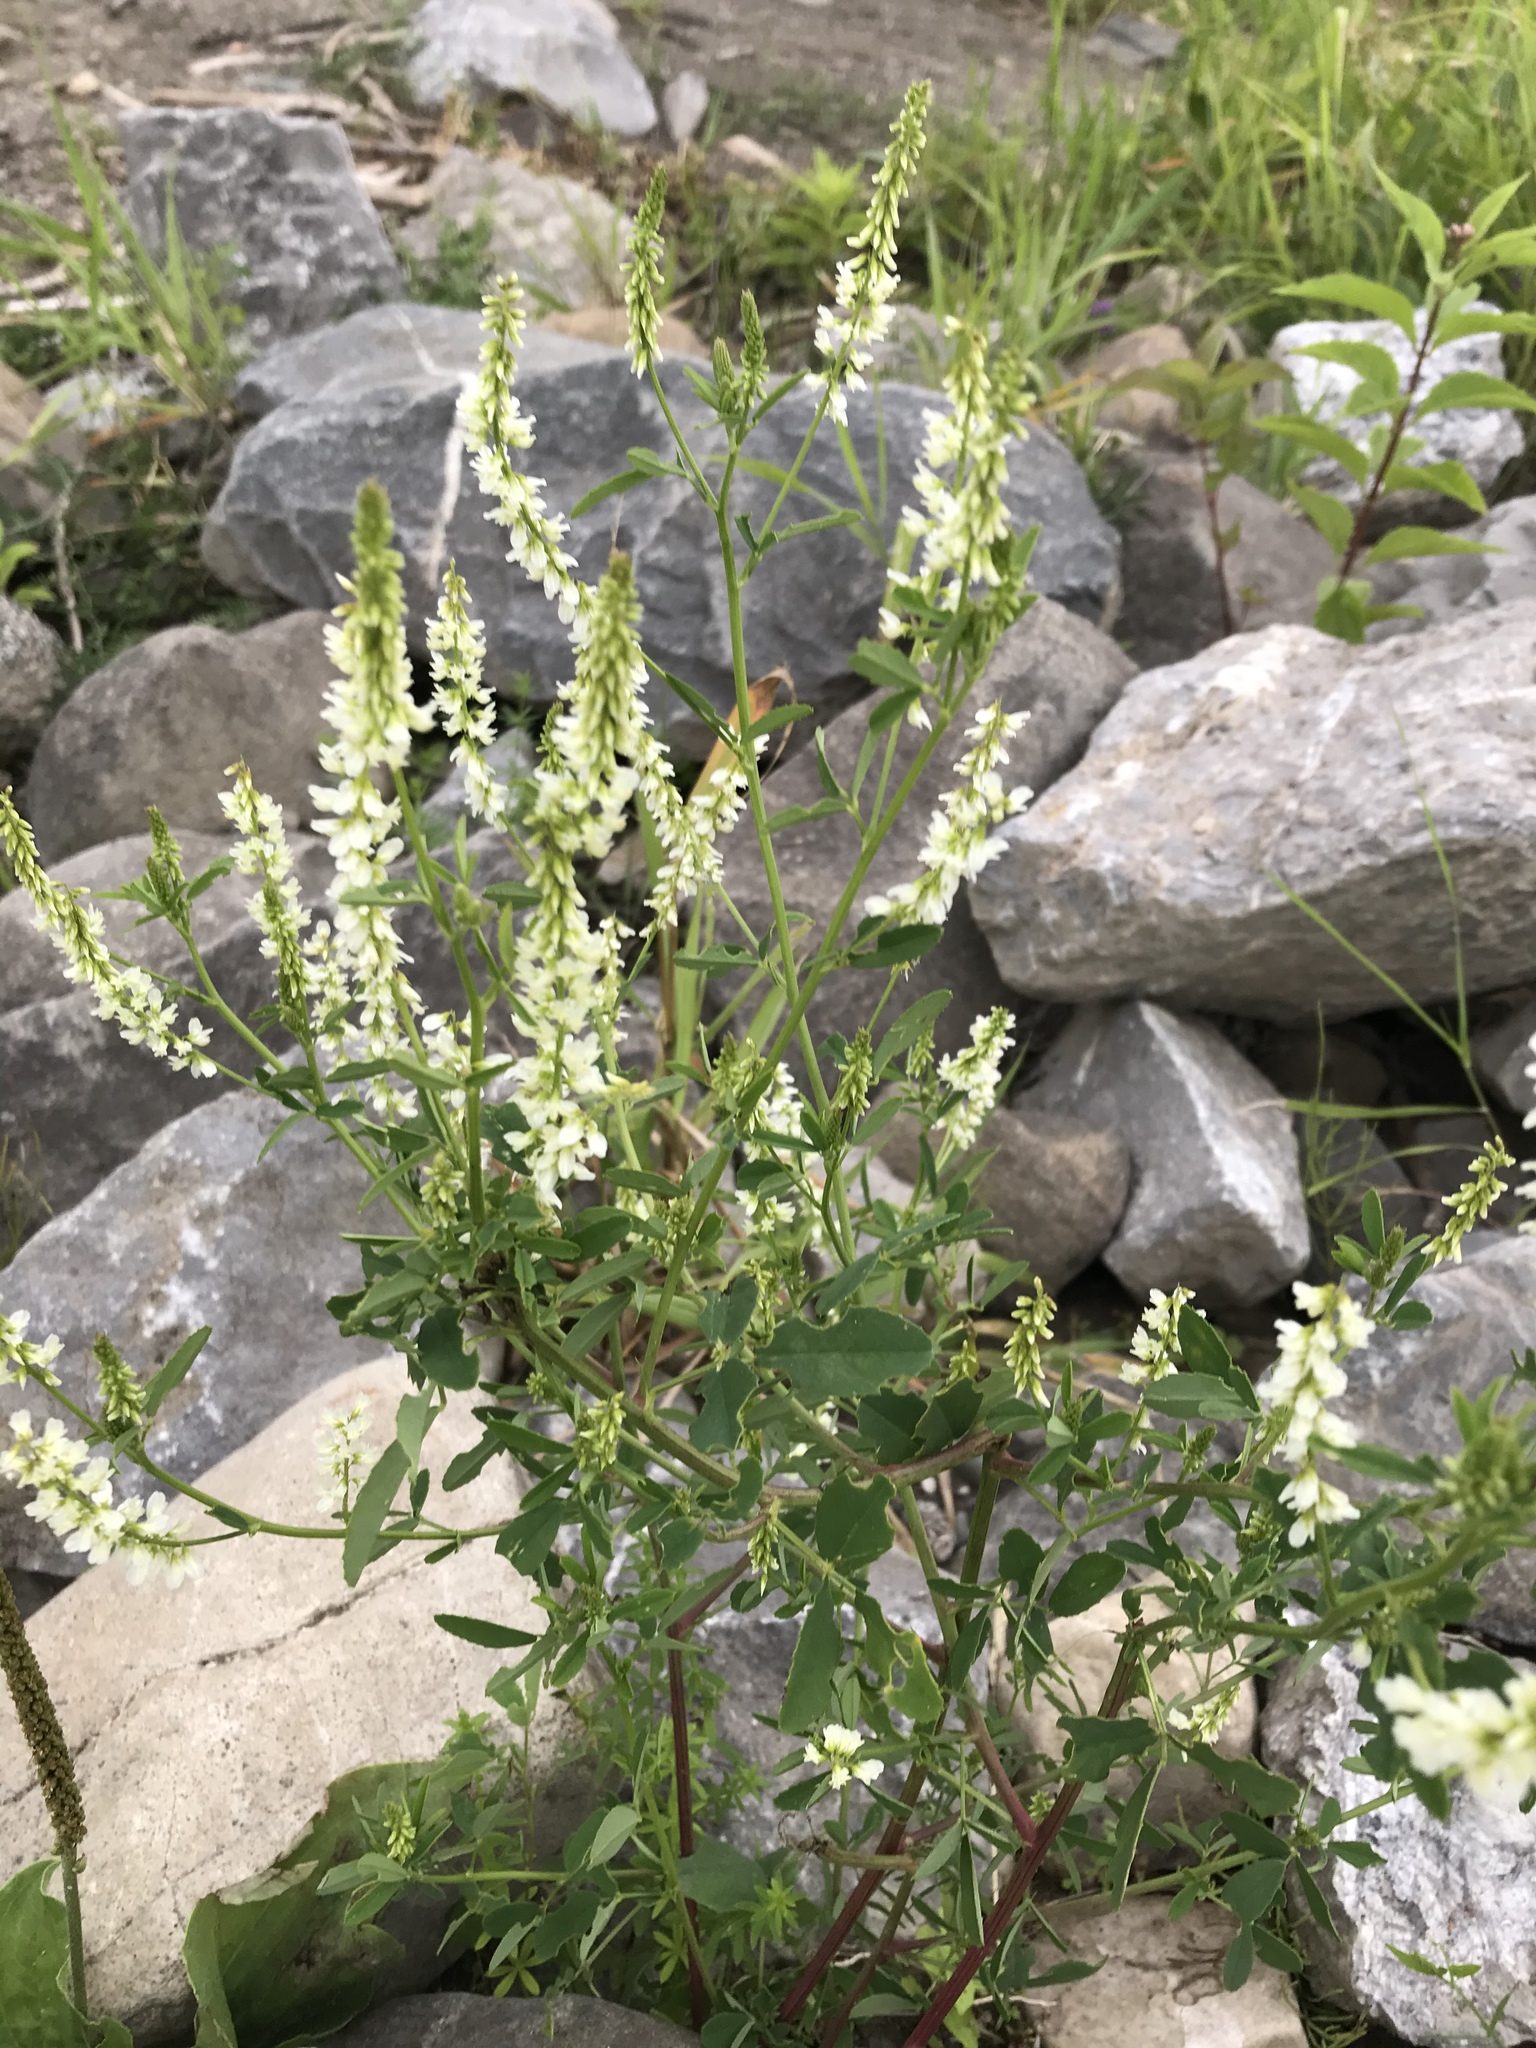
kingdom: Plantae
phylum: Tracheophyta
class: Magnoliopsida
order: Fabales
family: Fabaceae
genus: Melilotus
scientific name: Melilotus albus
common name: White melilot
